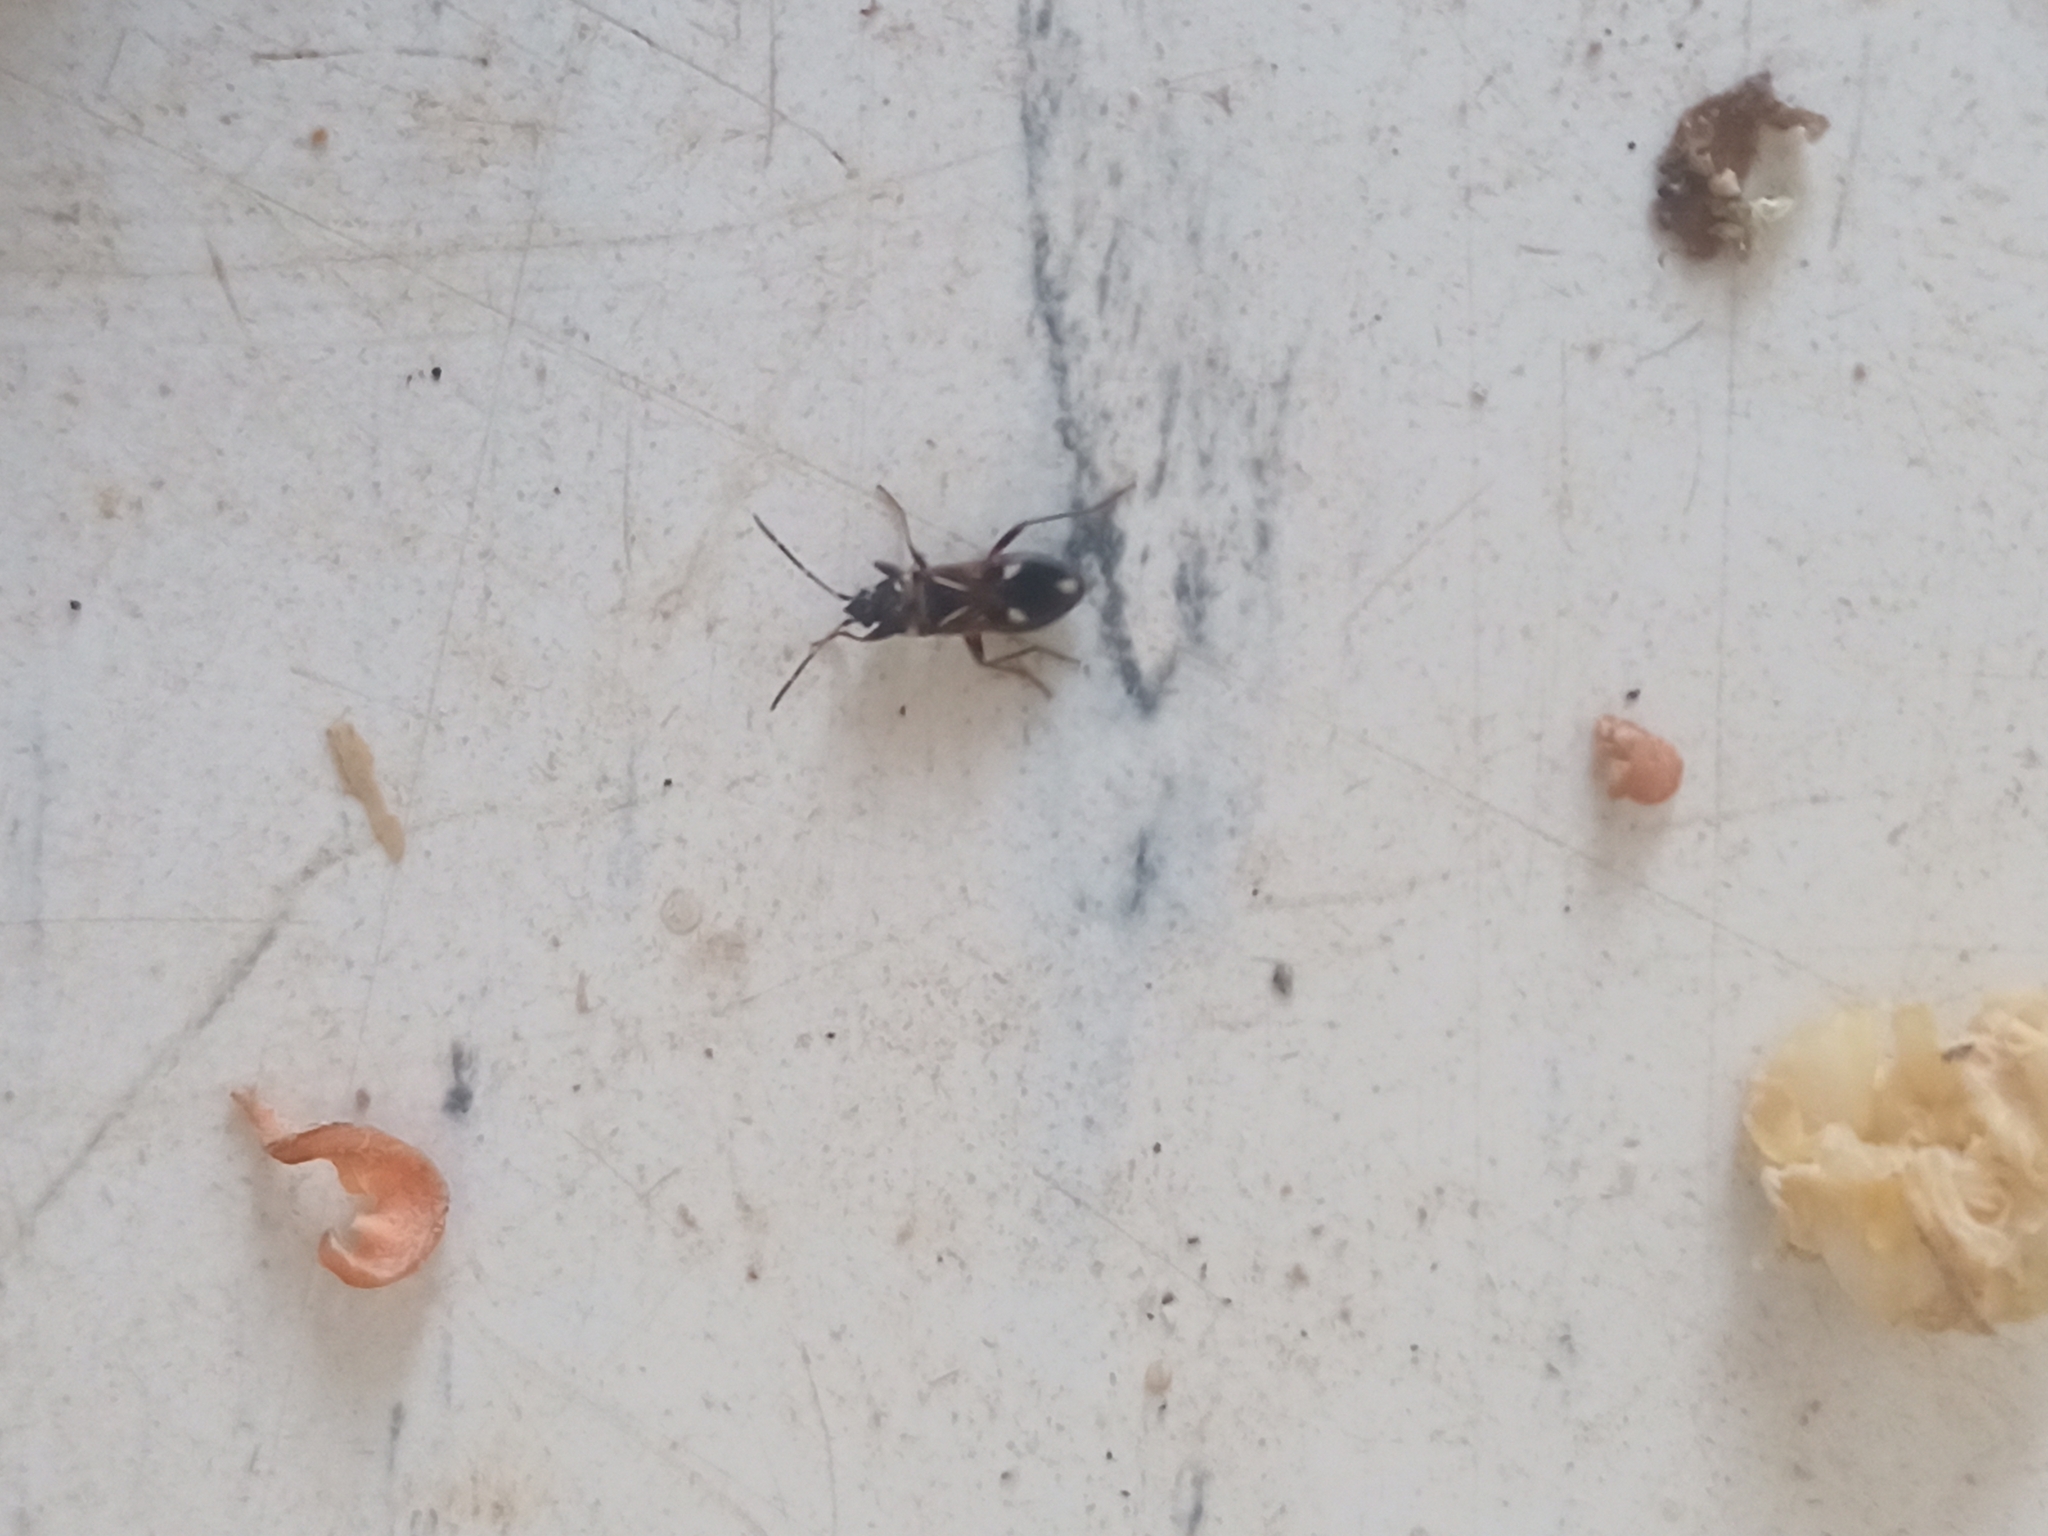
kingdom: Animalia
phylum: Arthropoda
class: Insecta
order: Hemiptera
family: Rhyparochromidae
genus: Raglius
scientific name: Raglius alboacuminatus
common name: Dirt-colored seed bug
